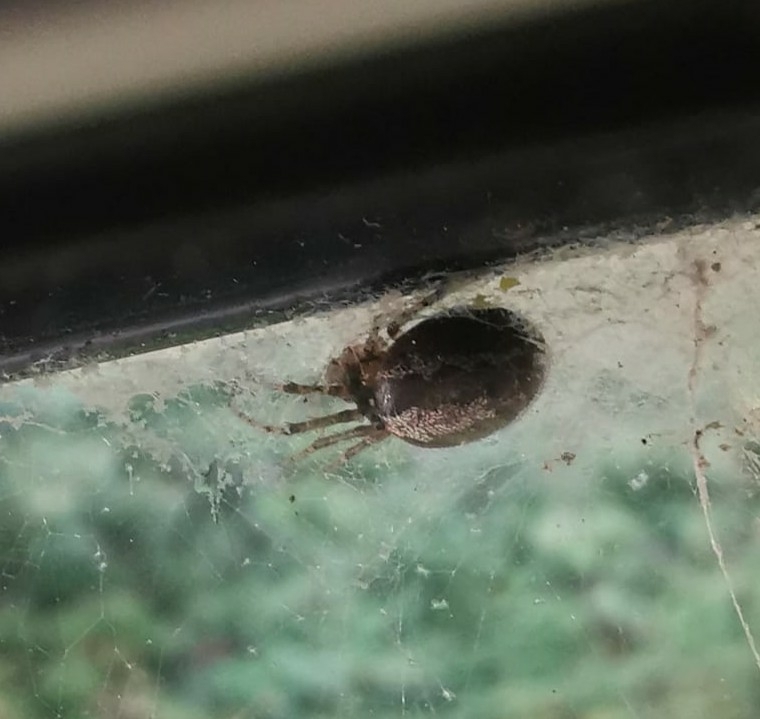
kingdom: Animalia
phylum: Arthropoda
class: Arachnida
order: Araneae
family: Araneidae
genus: Zygiella
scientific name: Zygiella x-notata
